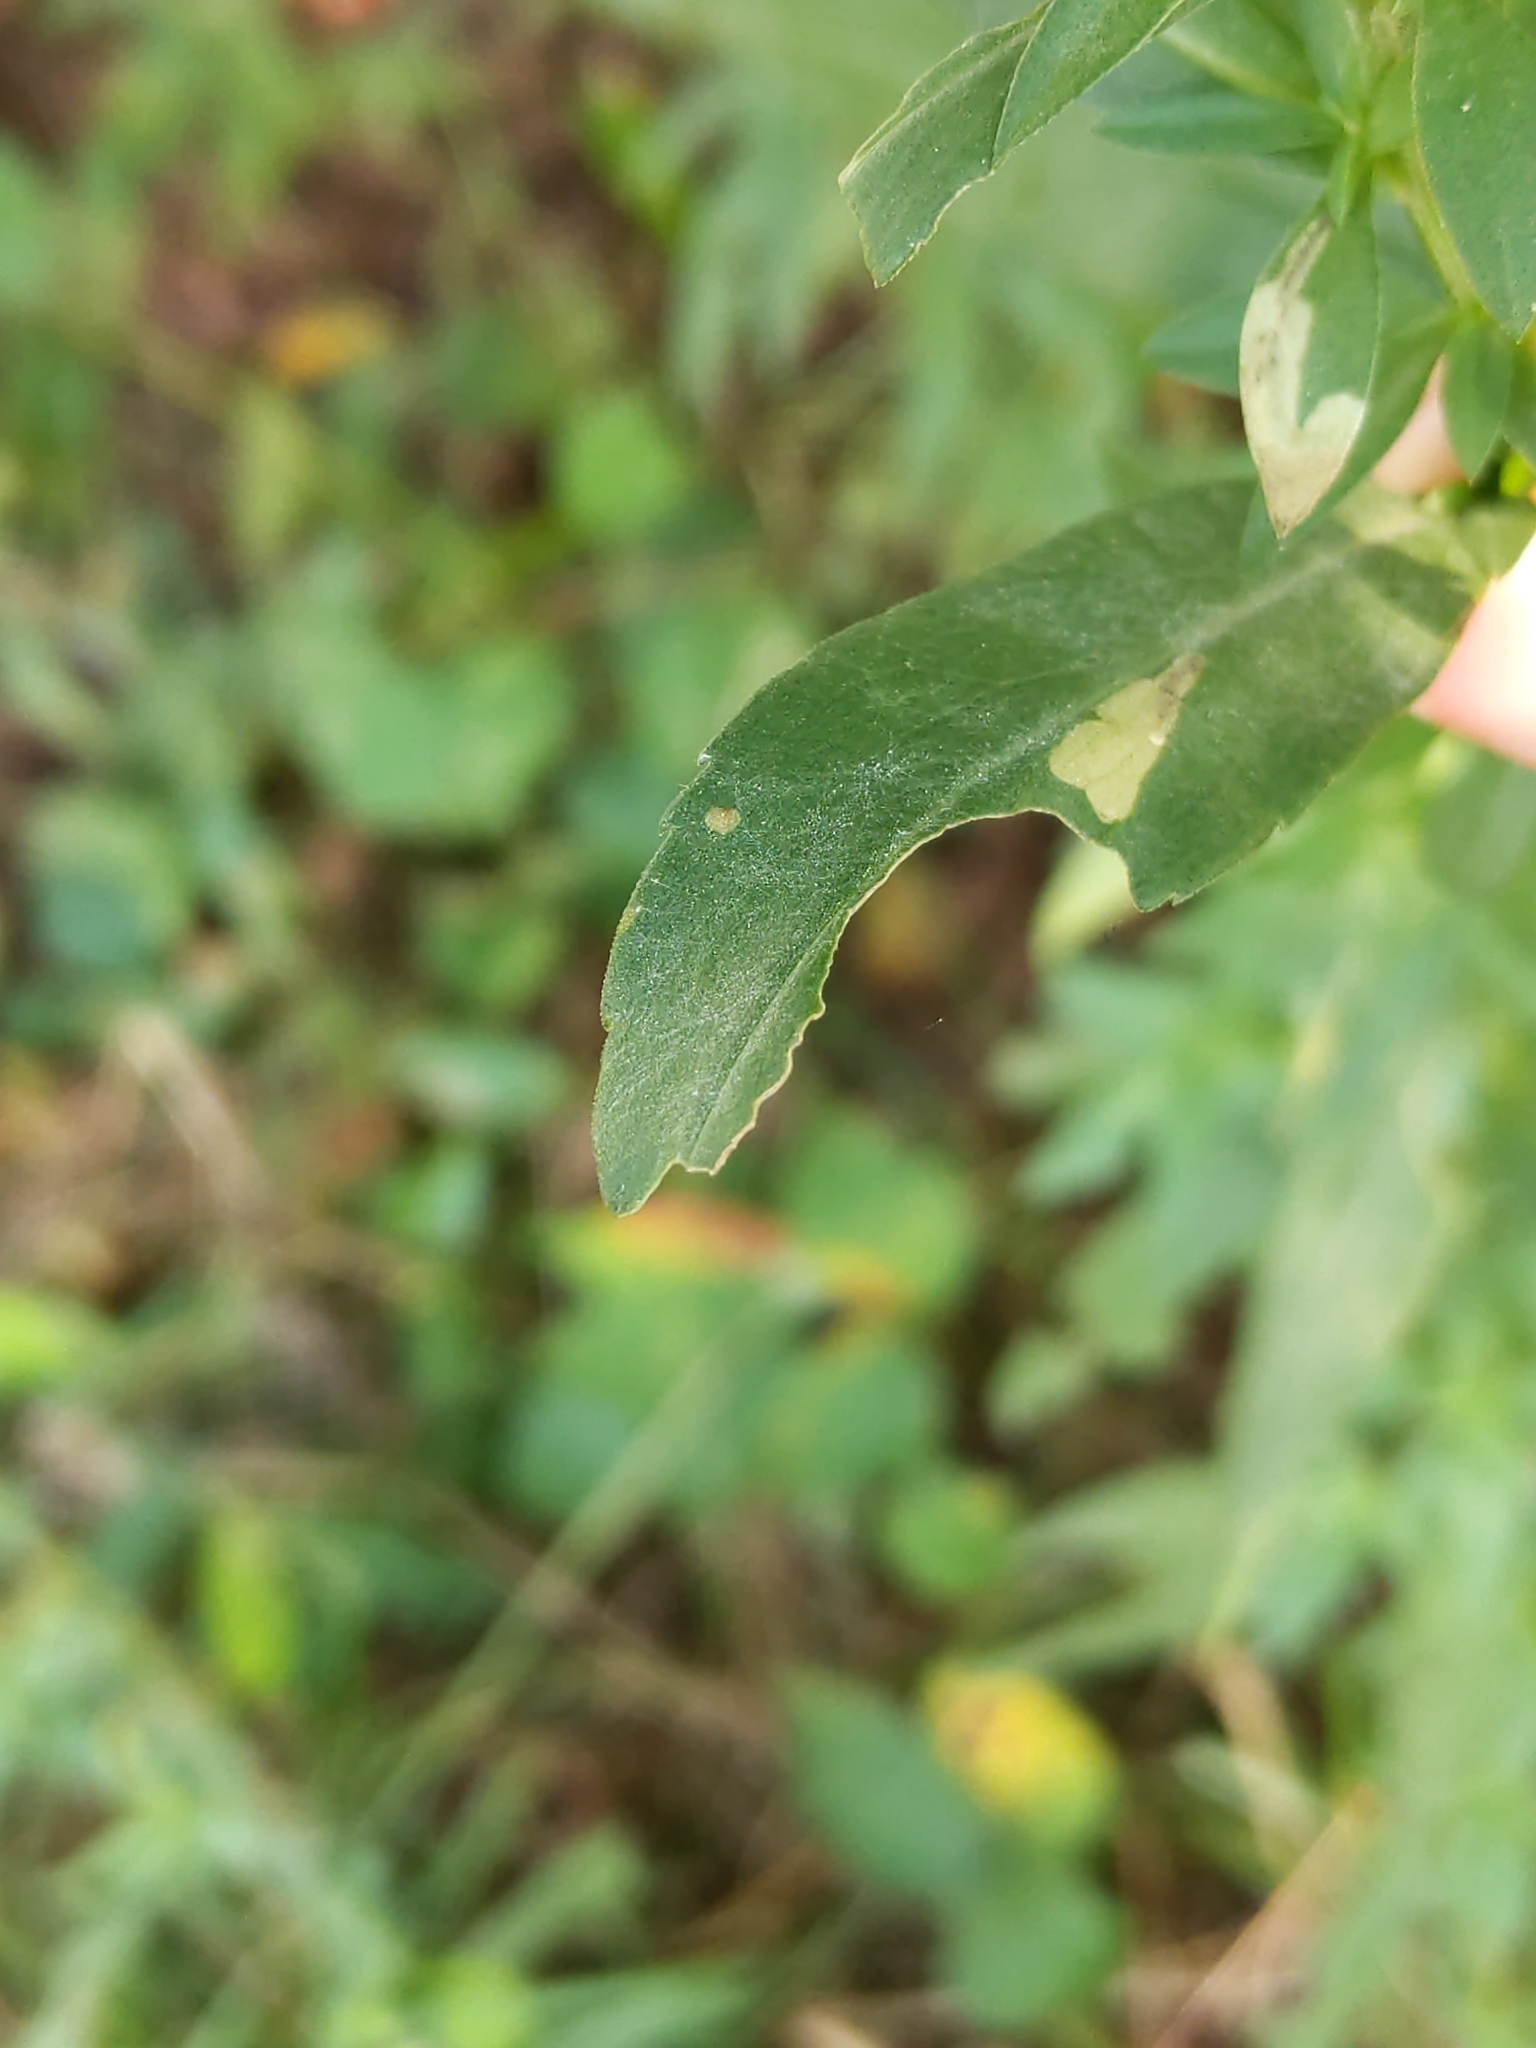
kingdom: Animalia
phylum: Arthropoda
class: Insecta
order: Lepidoptera
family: Bucculatricidae
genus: Bucculatrix
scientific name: Bucculatrix angustata
